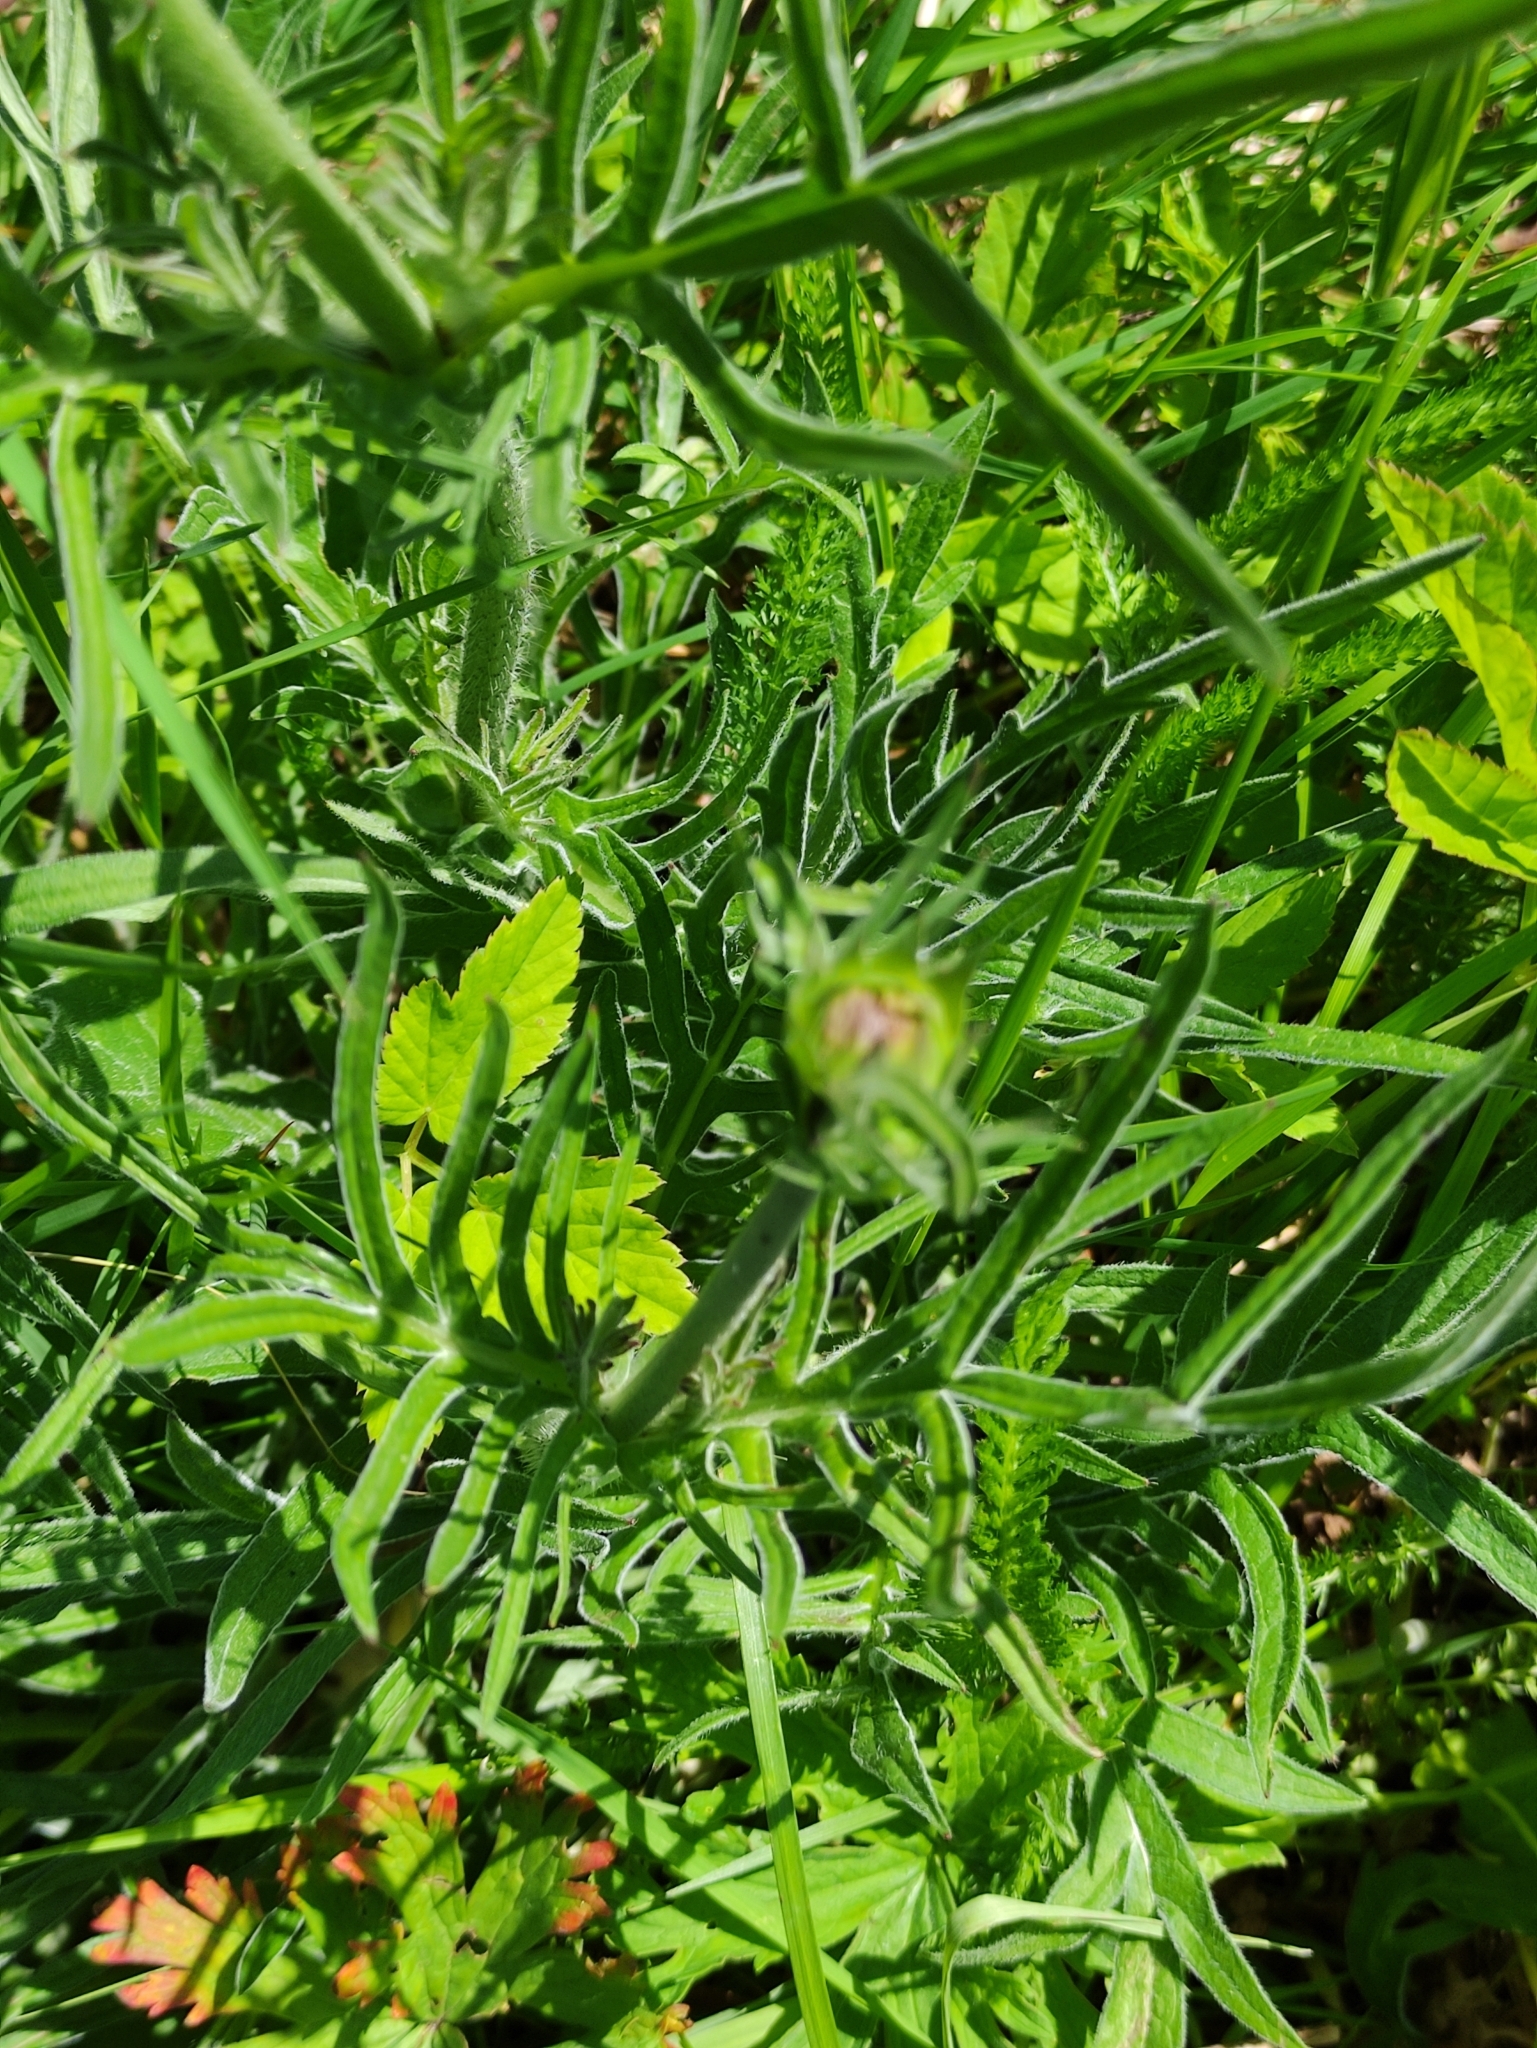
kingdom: Plantae
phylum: Tracheophyta
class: Magnoliopsida
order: Dipsacales
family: Caprifoliaceae
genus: Knautia
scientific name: Knautia arvensis
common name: Field scabiosa
